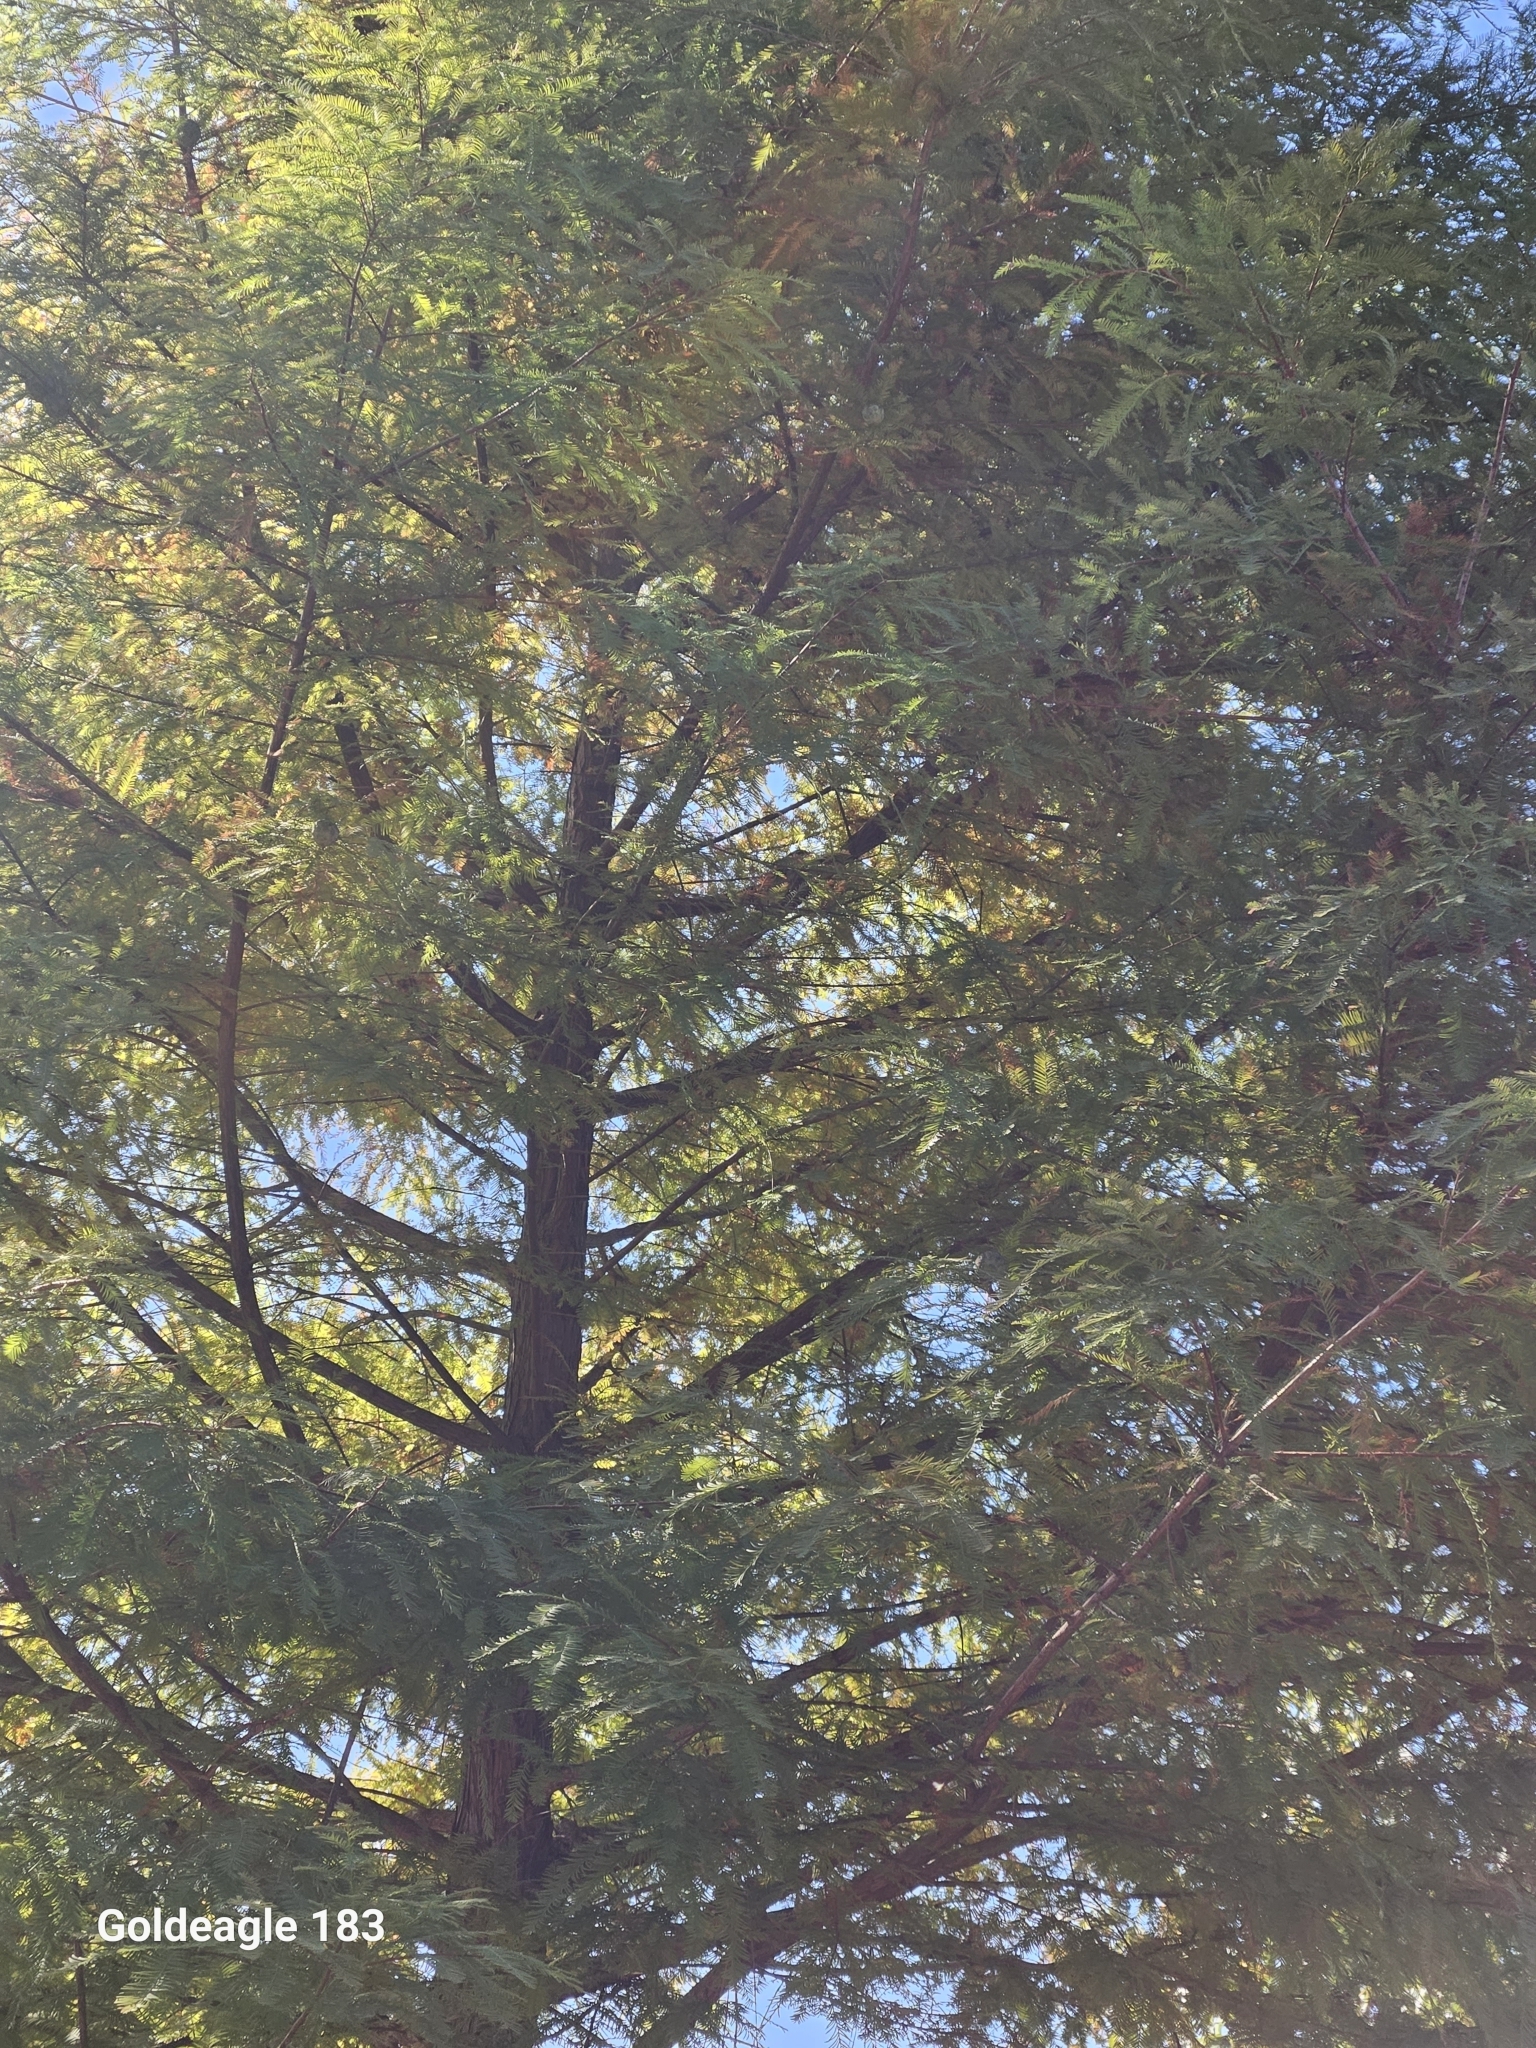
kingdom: Plantae
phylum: Tracheophyta
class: Pinopsida
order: Pinales
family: Cupressaceae
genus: Taxodium
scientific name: Taxodium distichum
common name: Bald cypress
